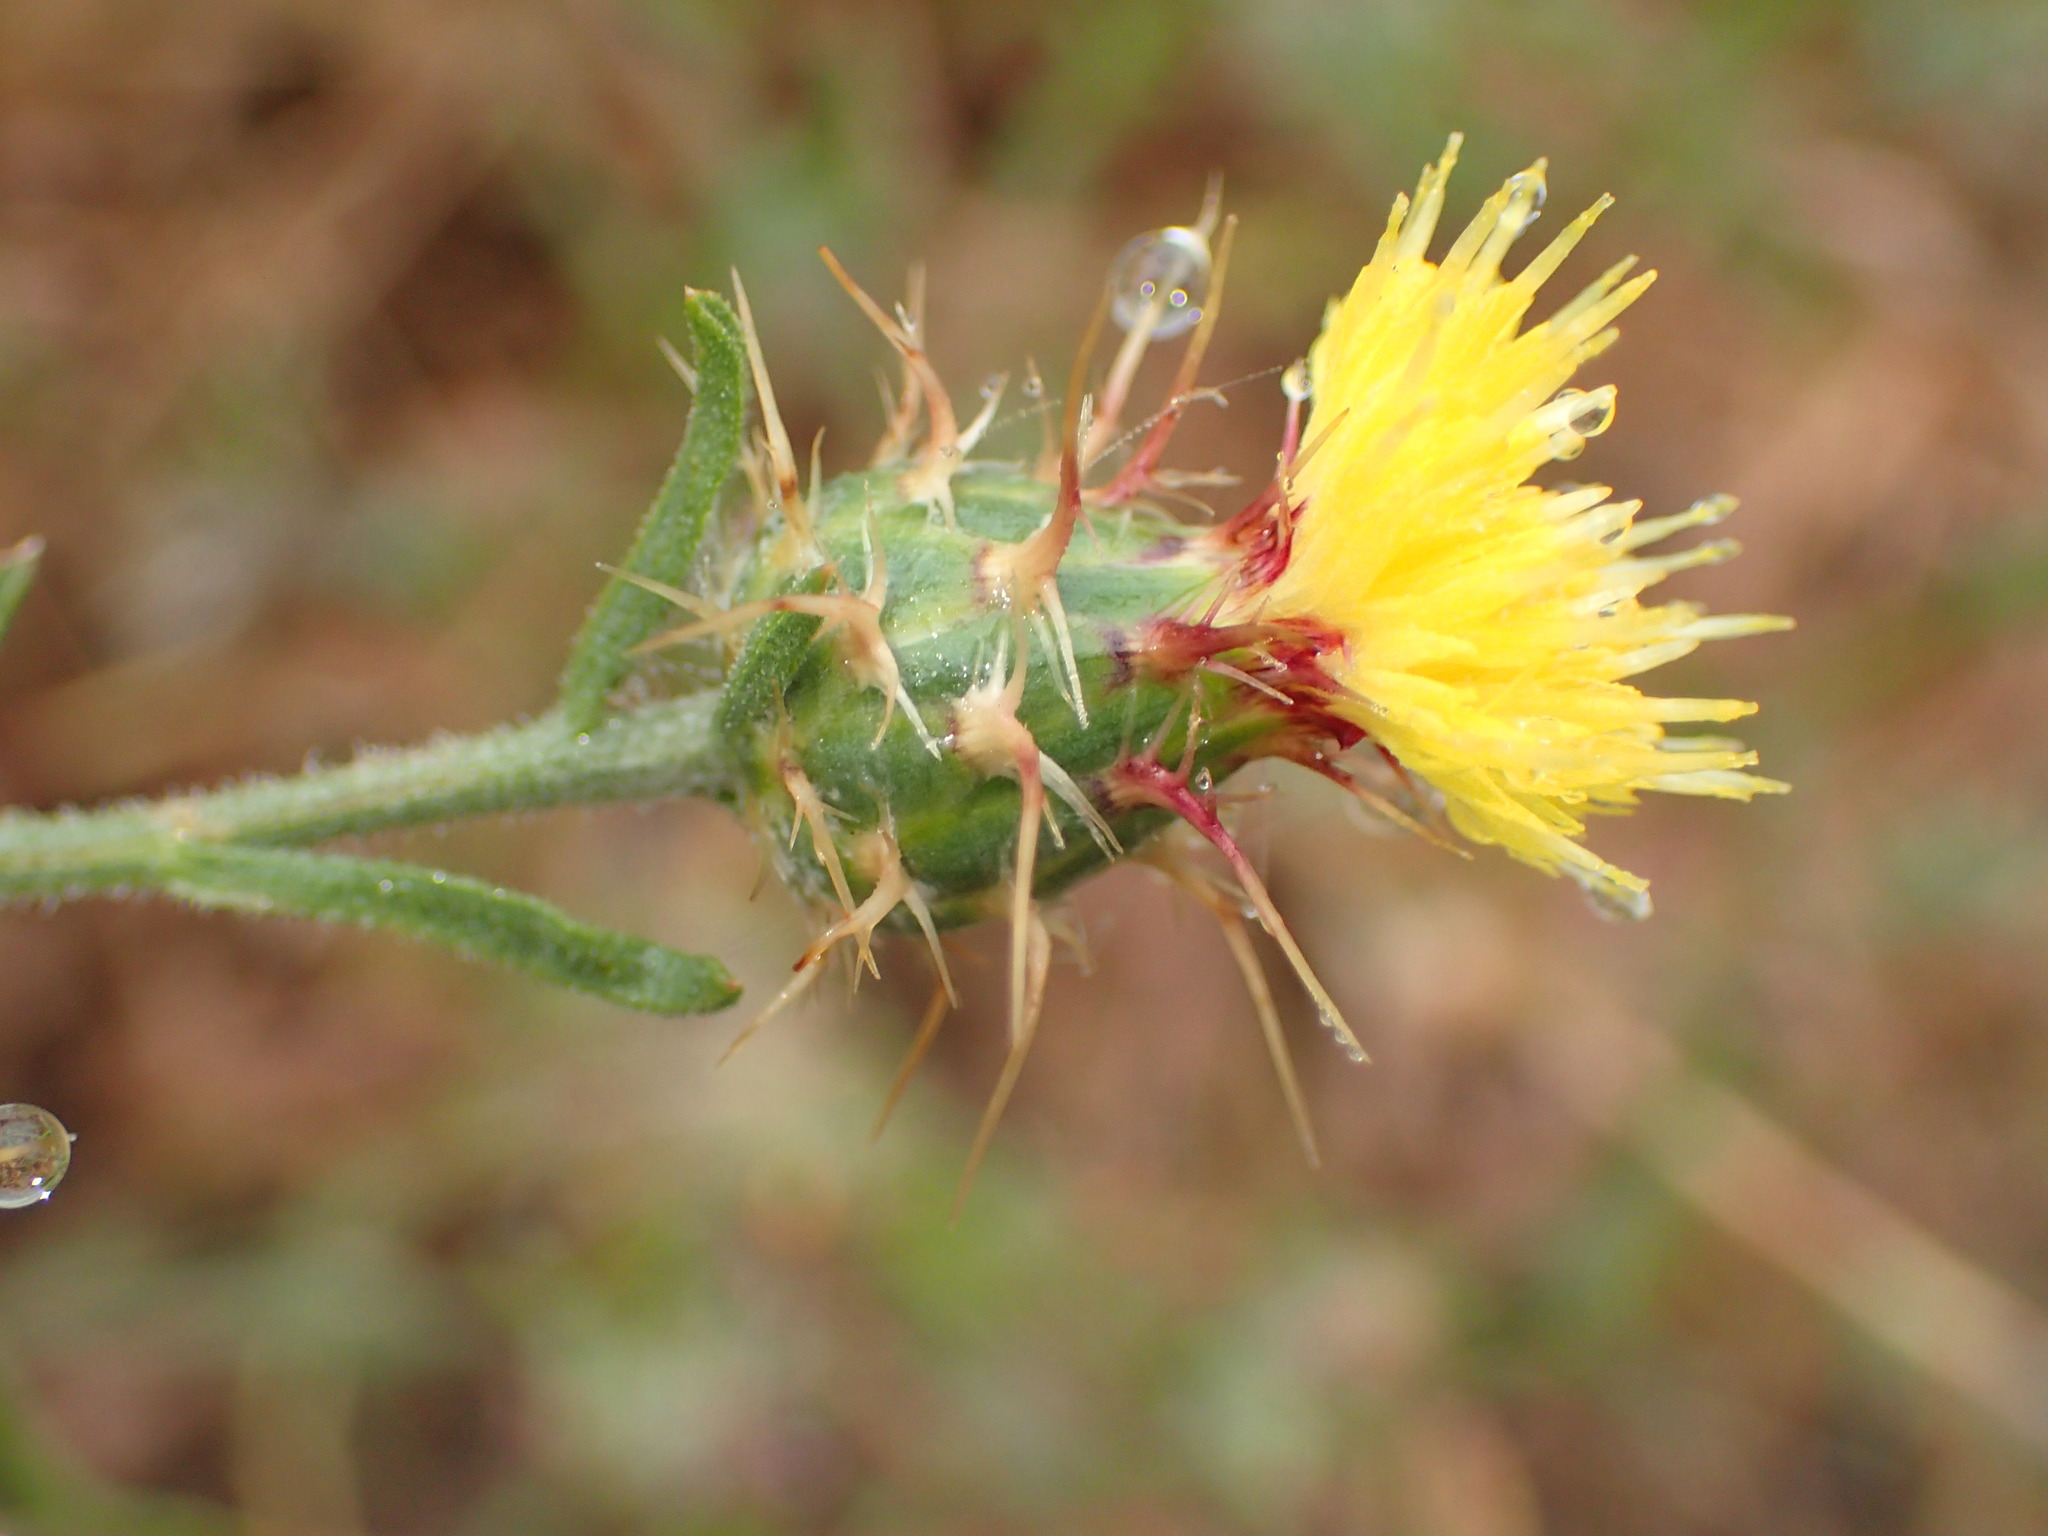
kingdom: Plantae
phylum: Tracheophyta
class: Magnoliopsida
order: Asterales
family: Asteraceae
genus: Centaurea
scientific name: Centaurea melitensis
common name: Maltese star-thistle
